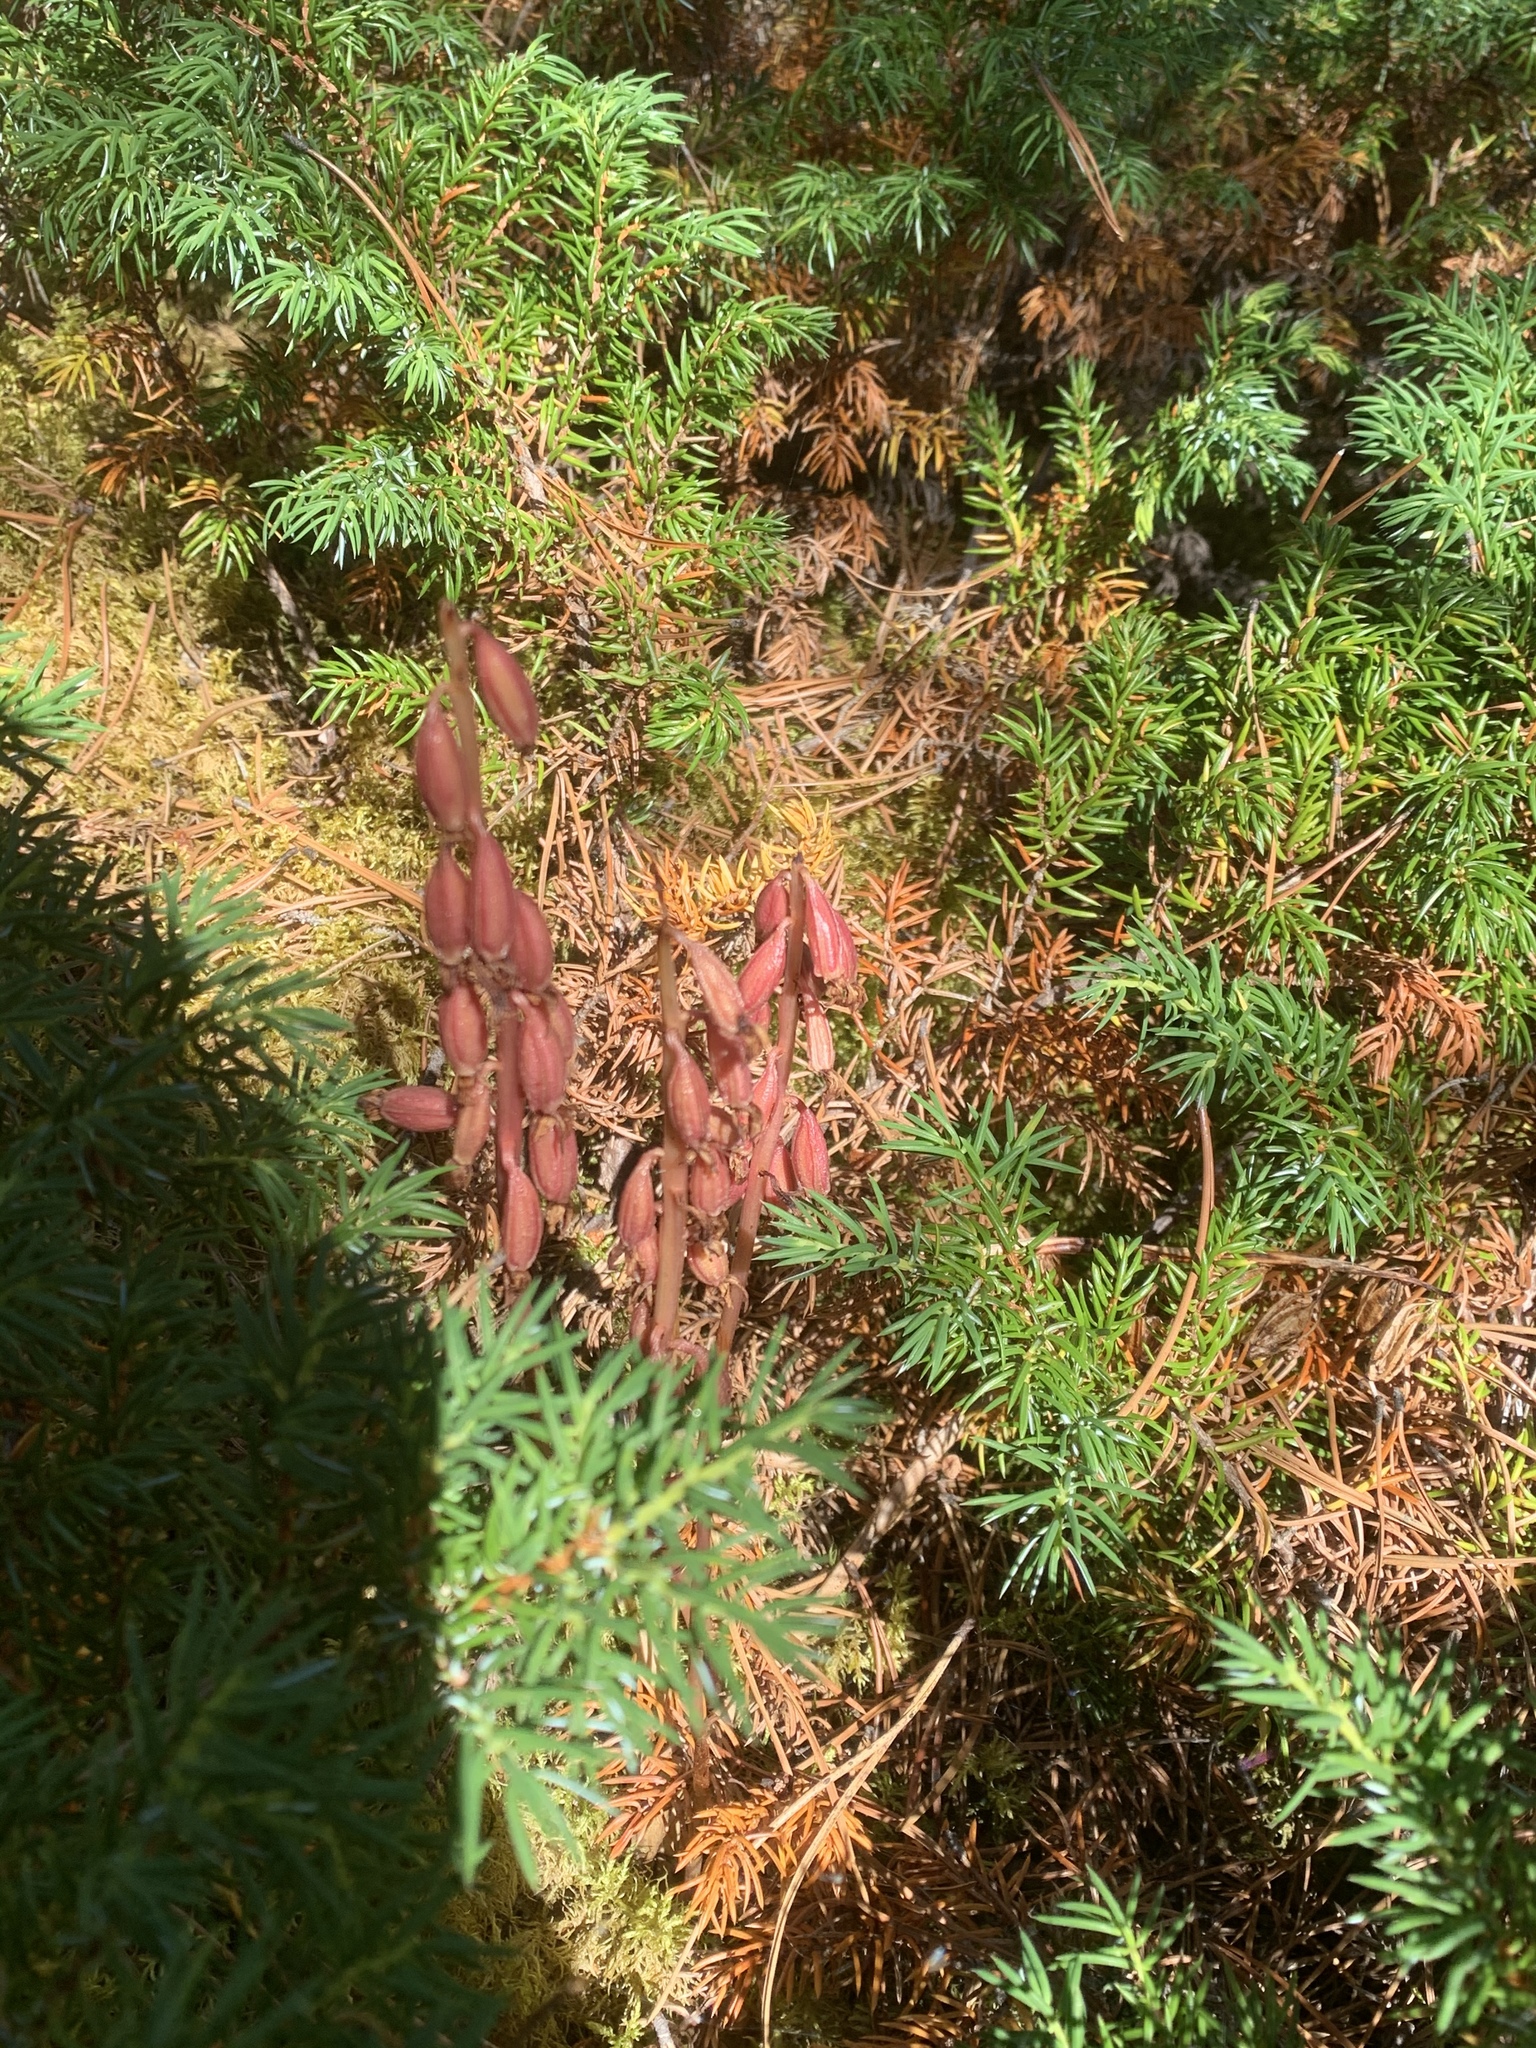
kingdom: Plantae
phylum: Tracheophyta
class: Liliopsida
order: Asparagales
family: Orchidaceae
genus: Corallorhiza
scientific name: Corallorhiza maculata
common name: Spotted coralroot
